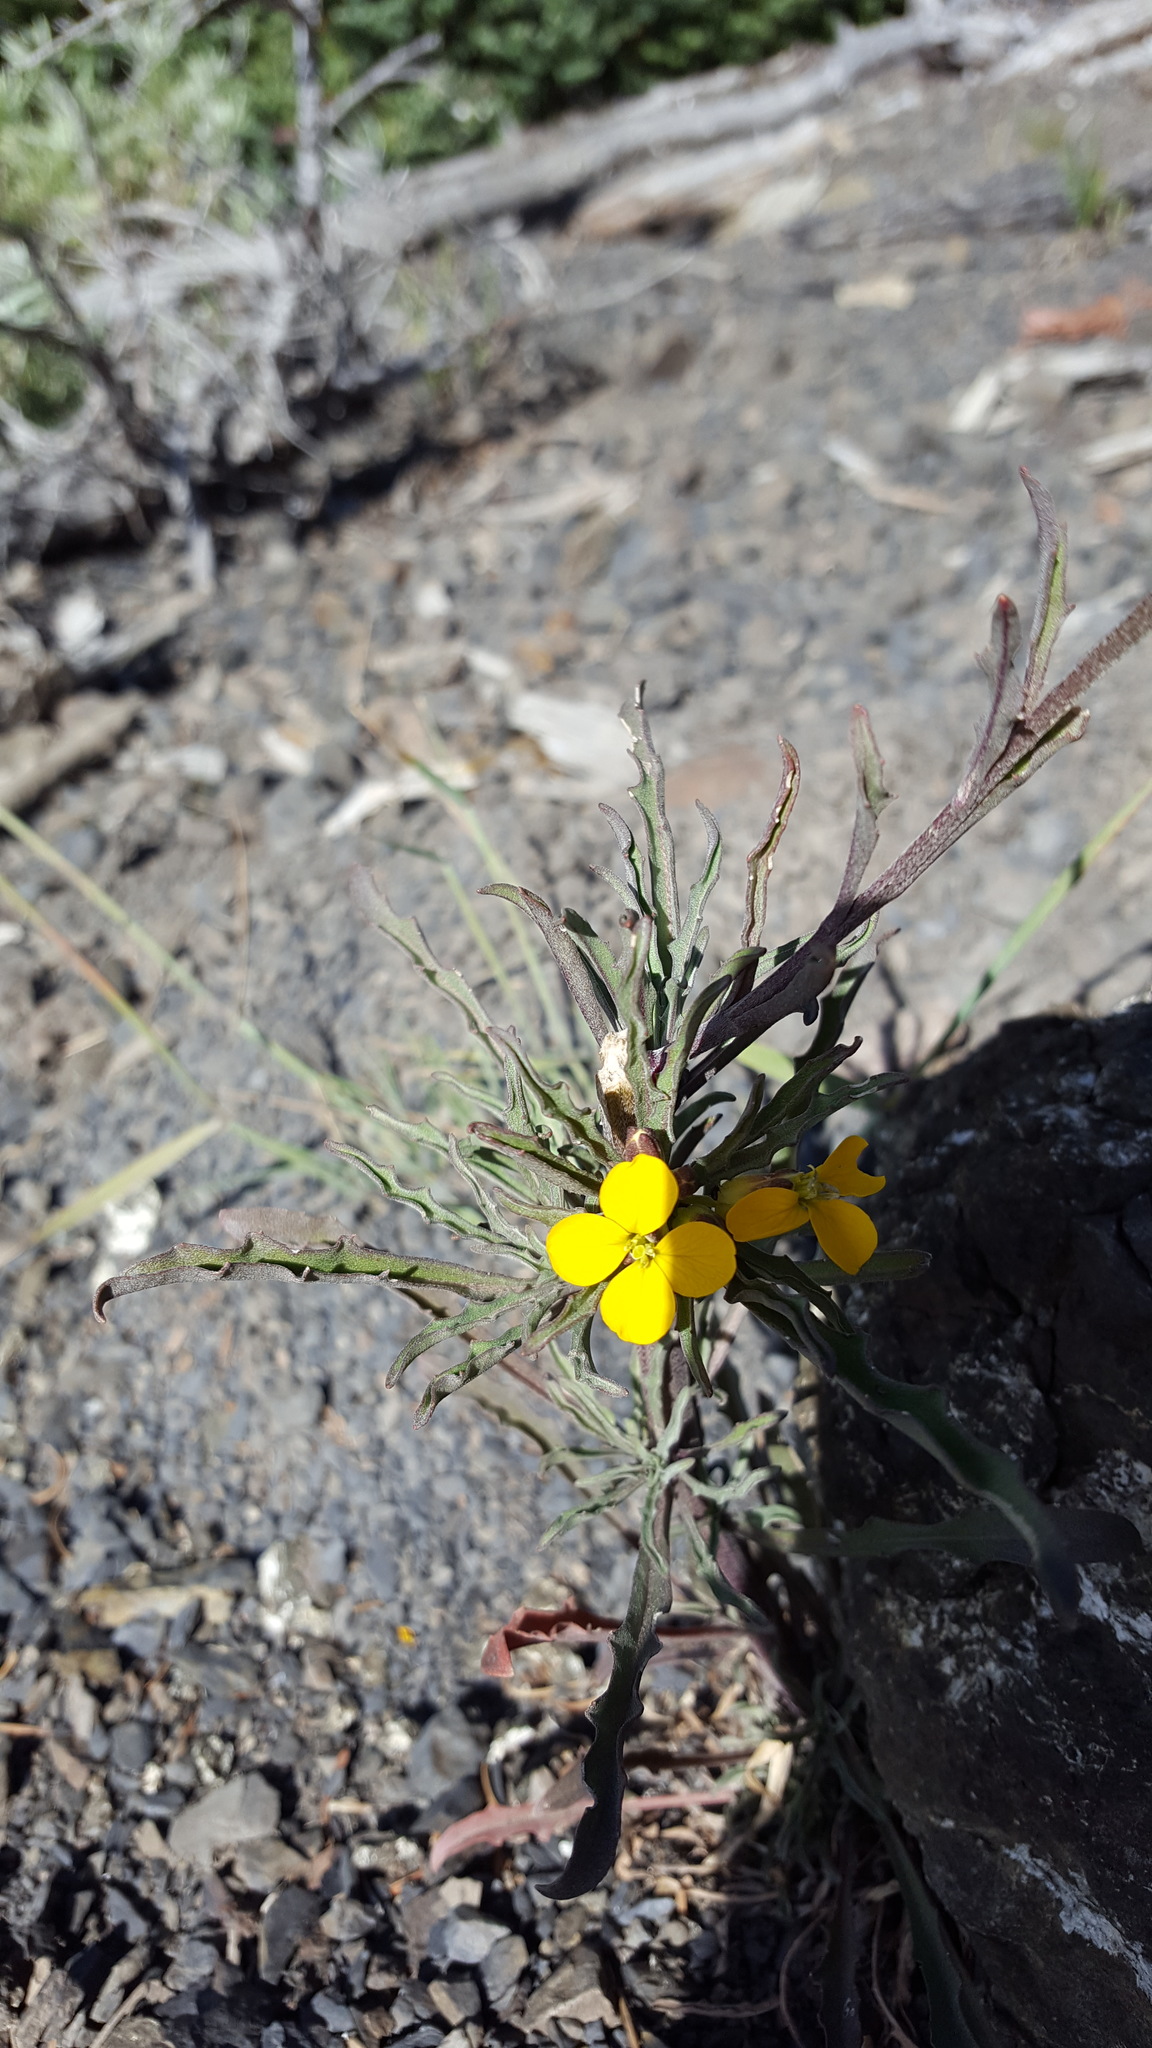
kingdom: Plantae
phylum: Tracheophyta
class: Magnoliopsida
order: Brassicales
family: Brassicaceae
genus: Erysimum
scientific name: Erysimum arenicola
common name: Cascade wallflower
